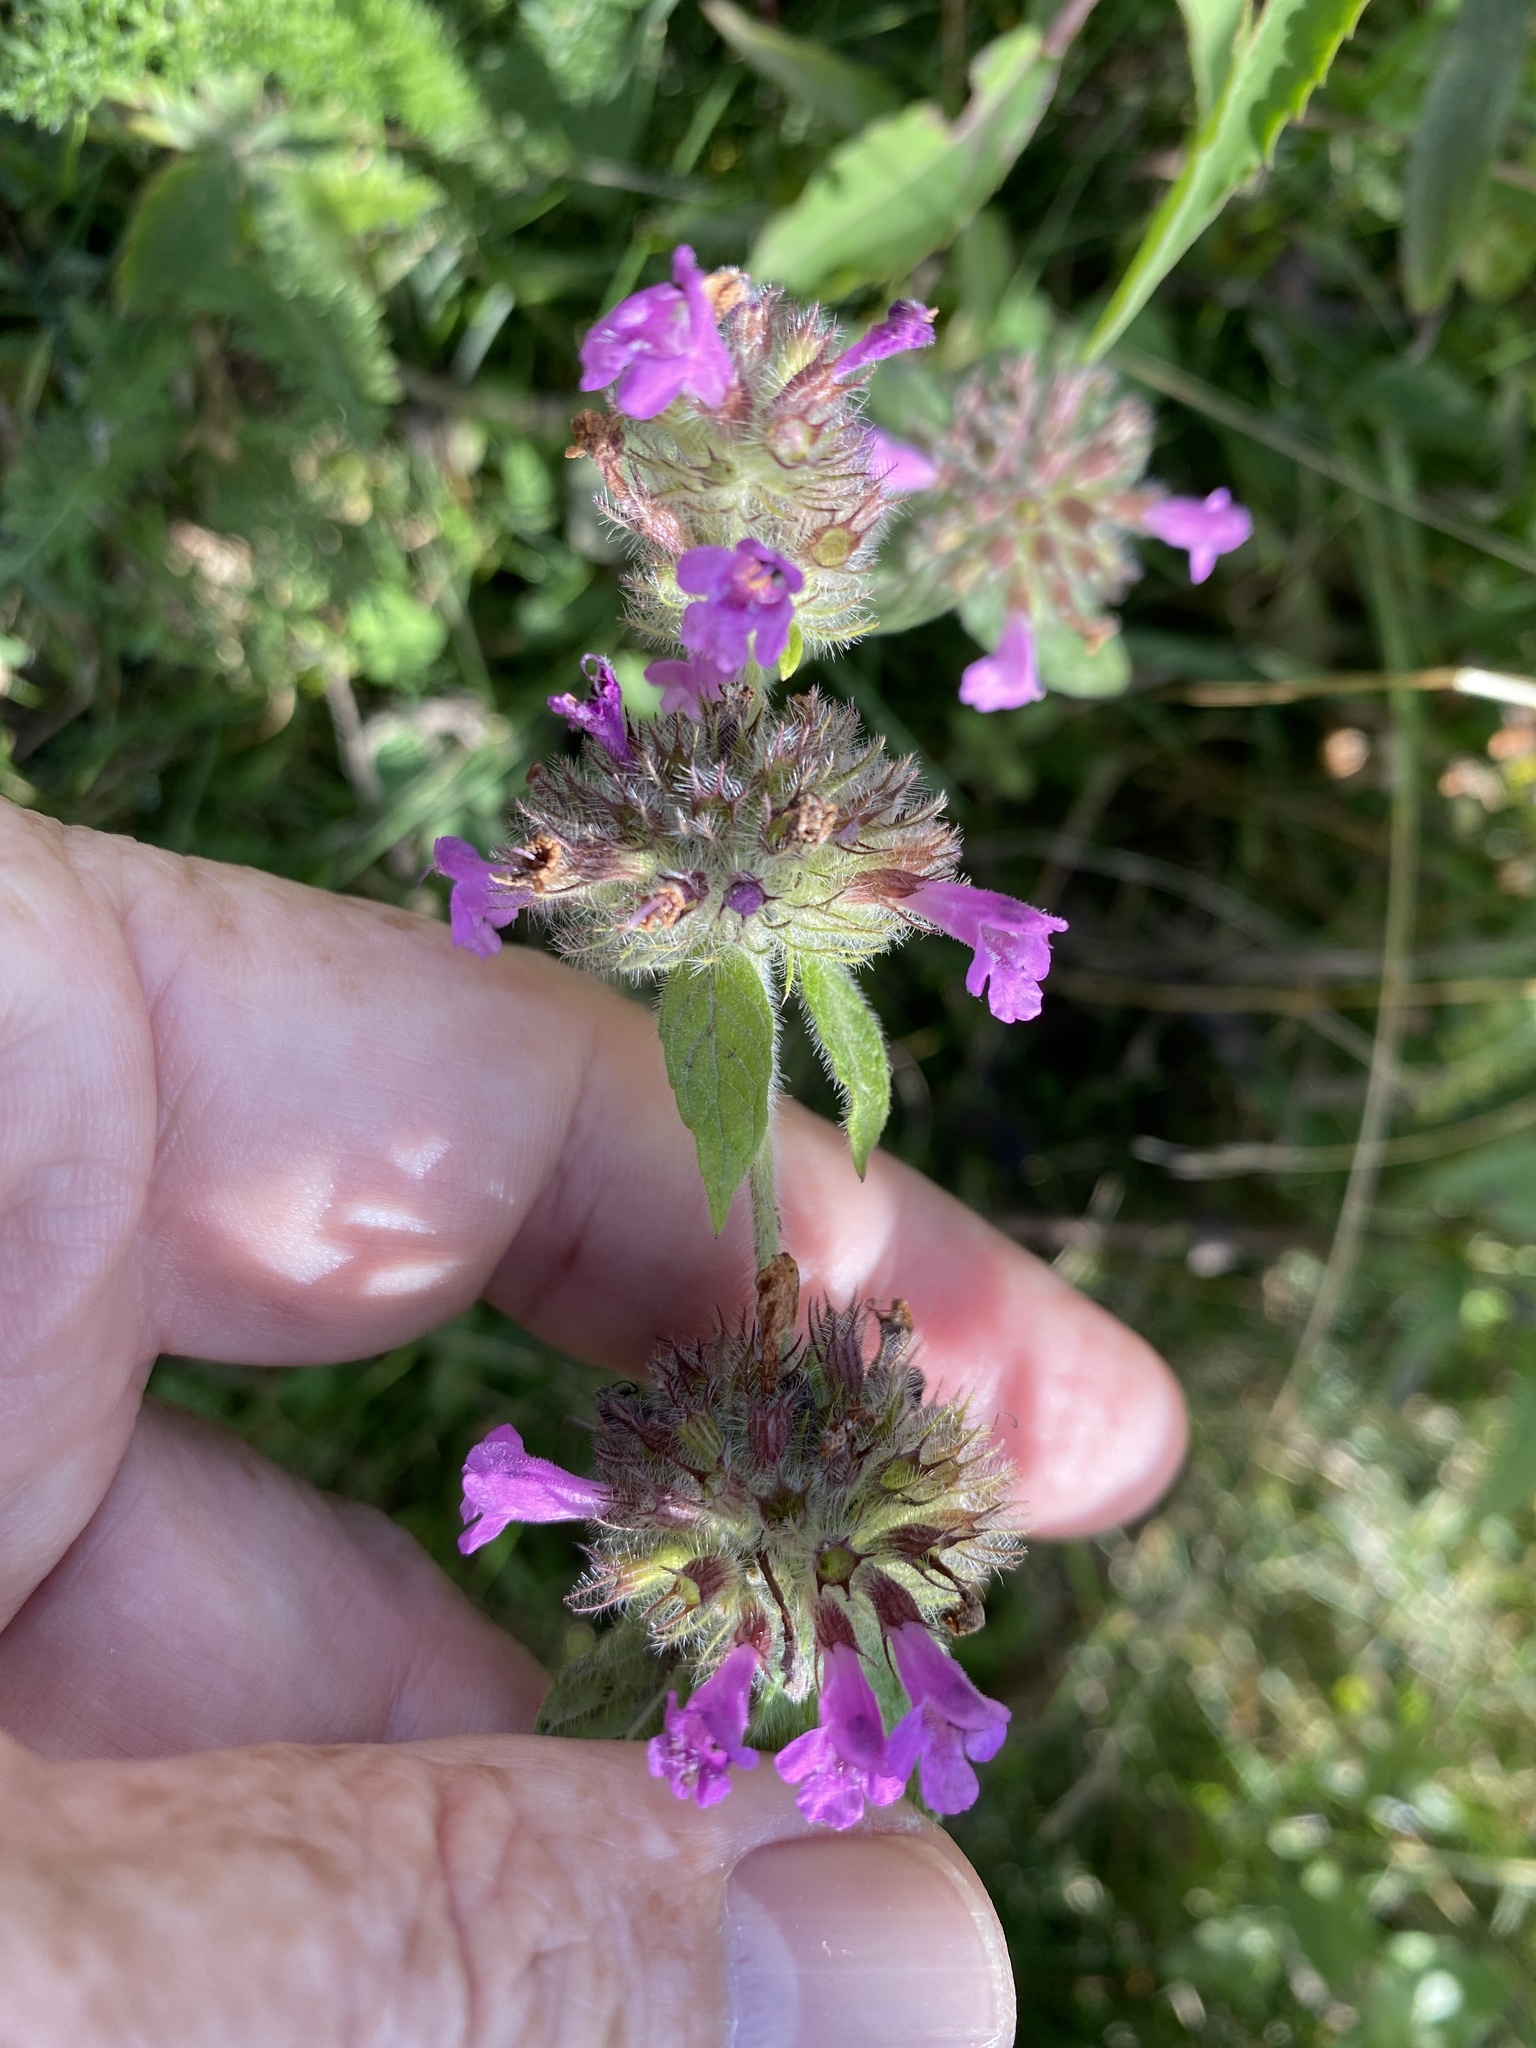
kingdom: Plantae
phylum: Tracheophyta
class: Magnoliopsida
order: Lamiales
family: Lamiaceae
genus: Clinopodium
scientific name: Clinopodium vulgare
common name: Wild basil
